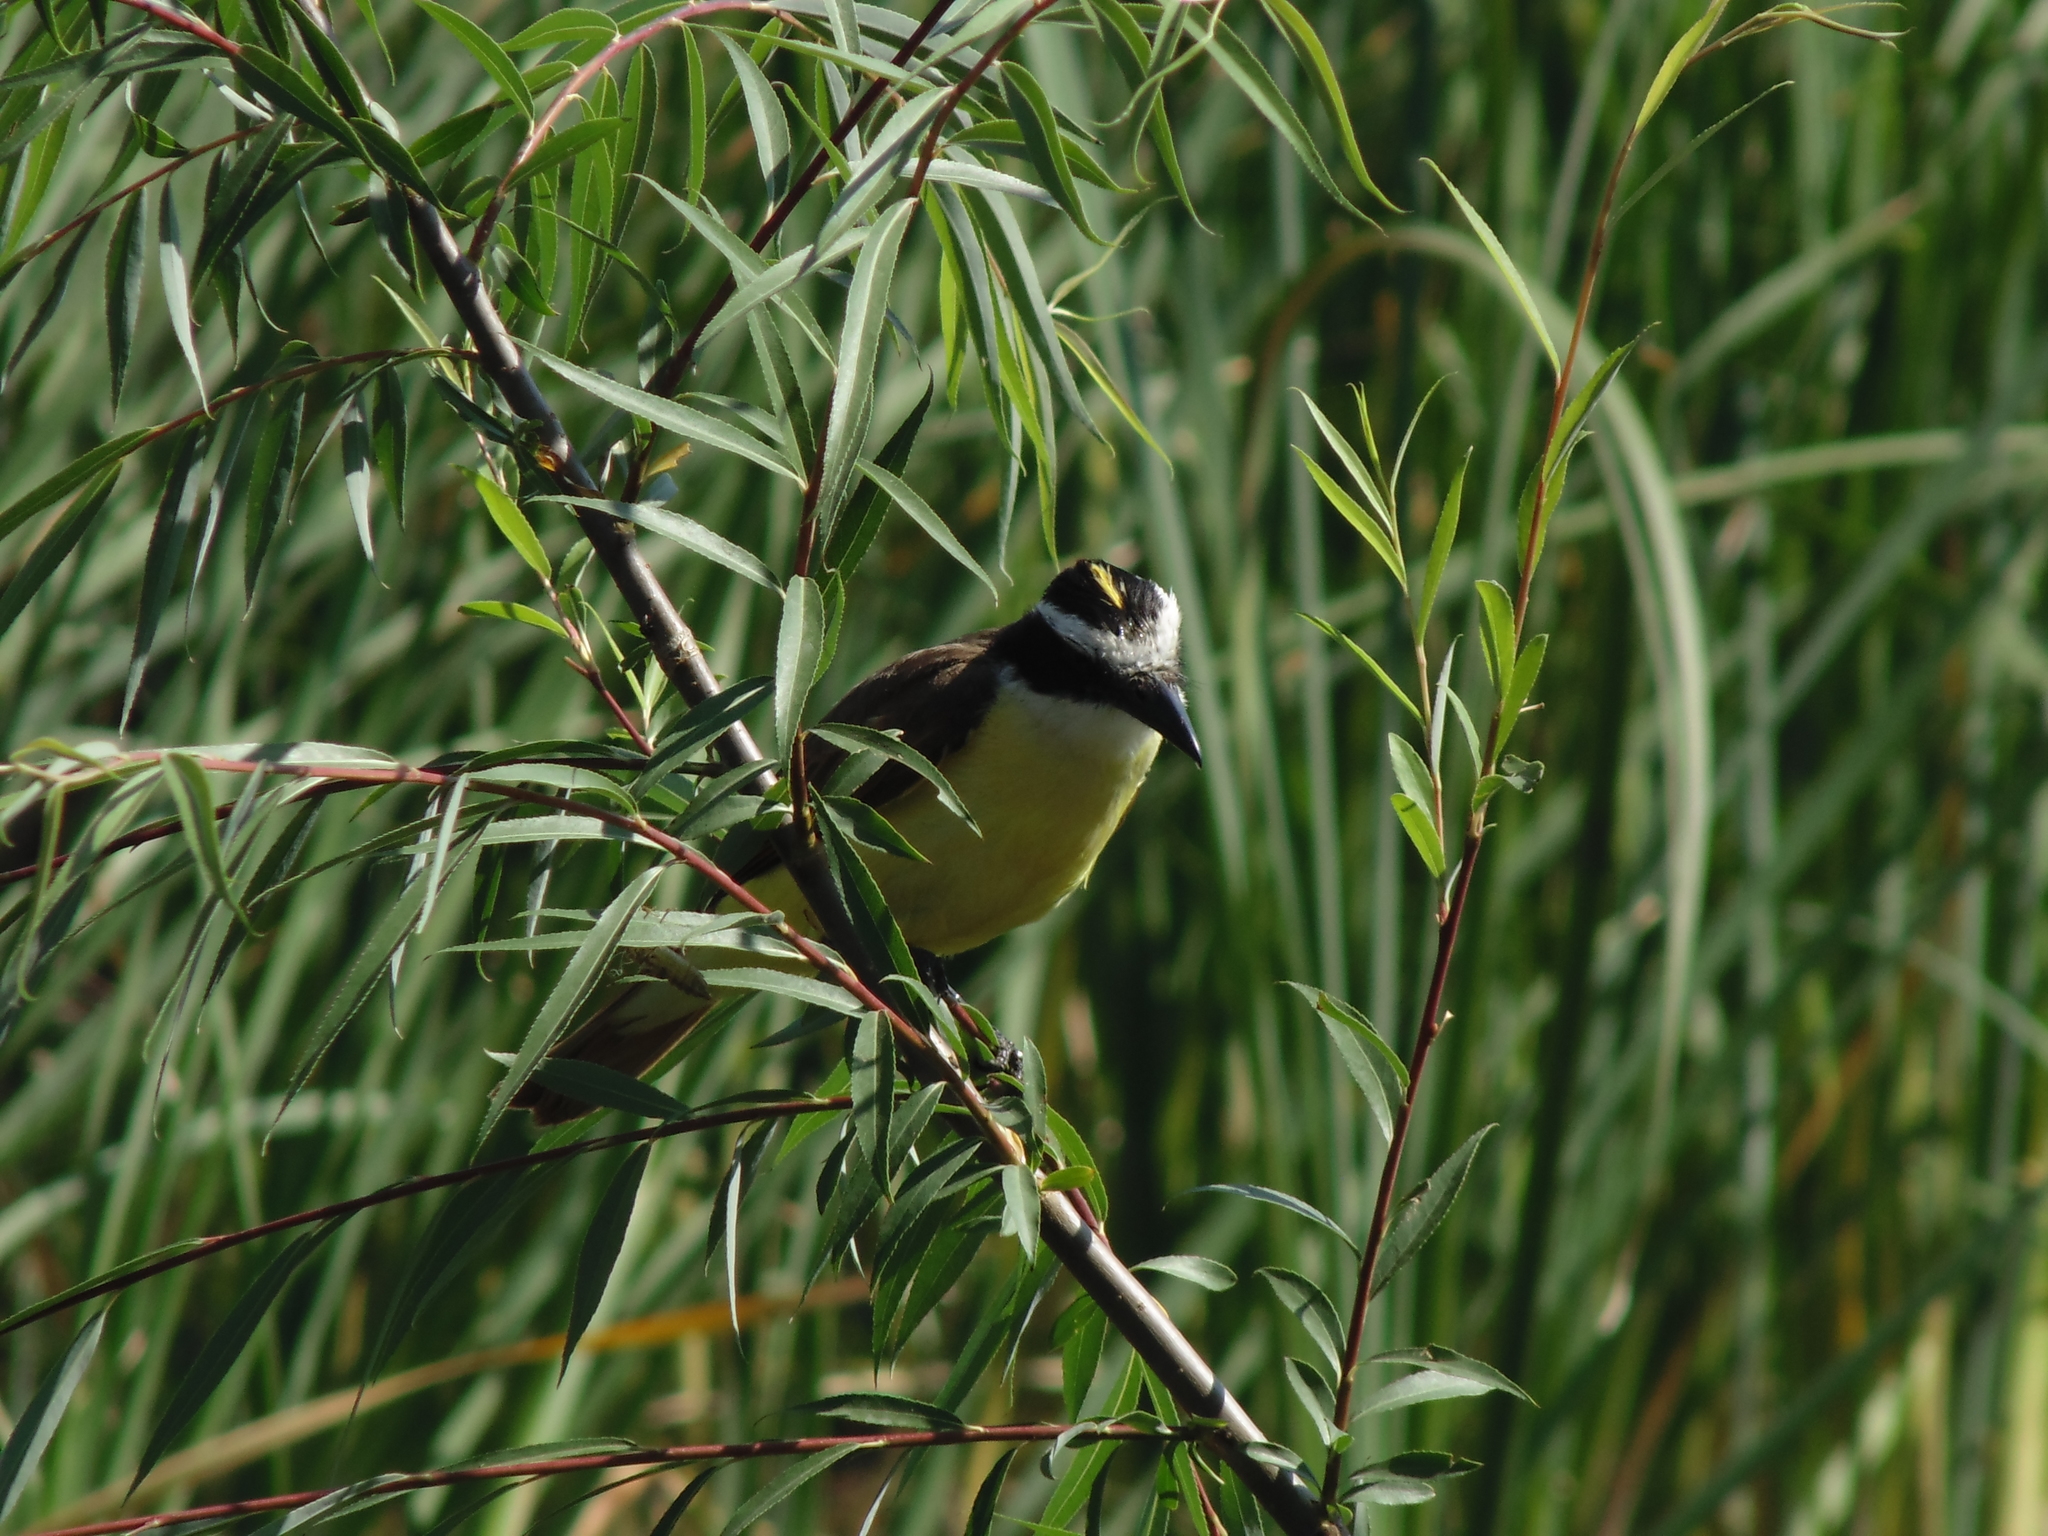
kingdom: Animalia
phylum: Chordata
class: Aves
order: Passeriformes
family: Tyrannidae
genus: Pitangus
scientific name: Pitangus sulphuratus
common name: Great kiskadee
